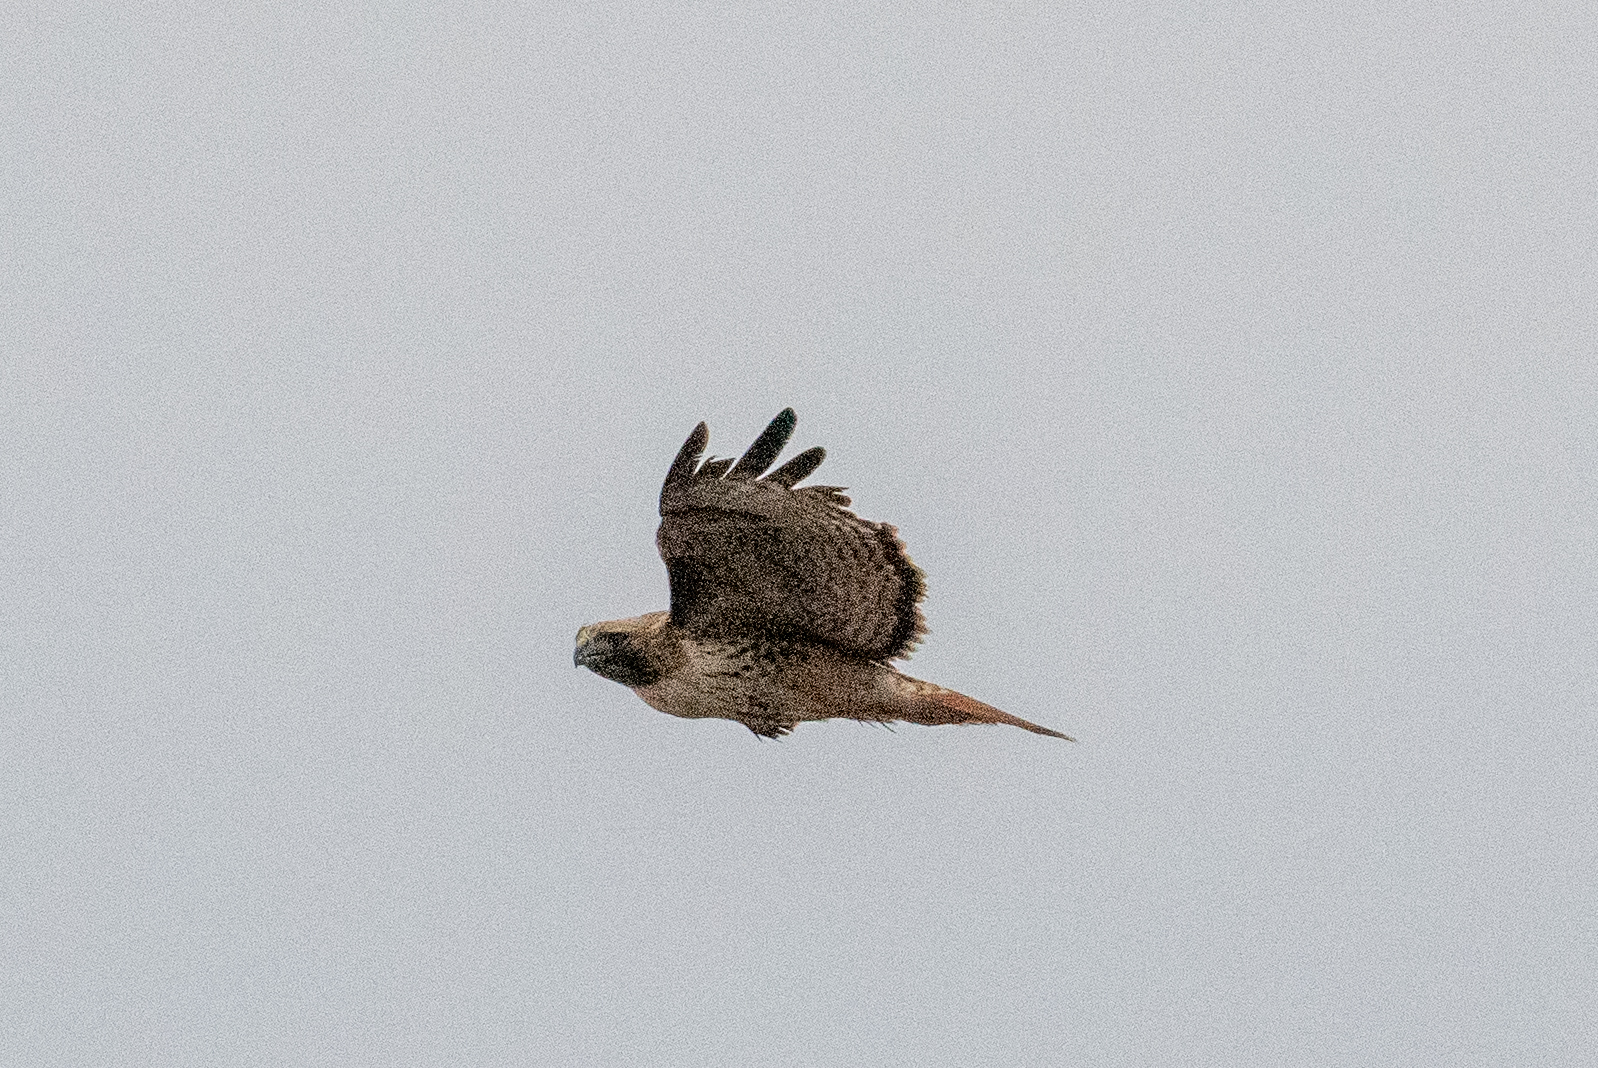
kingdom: Animalia
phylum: Chordata
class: Aves
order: Accipitriformes
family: Accipitridae
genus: Buteo
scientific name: Buteo jamaicensis
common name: Red-tailed hawk
